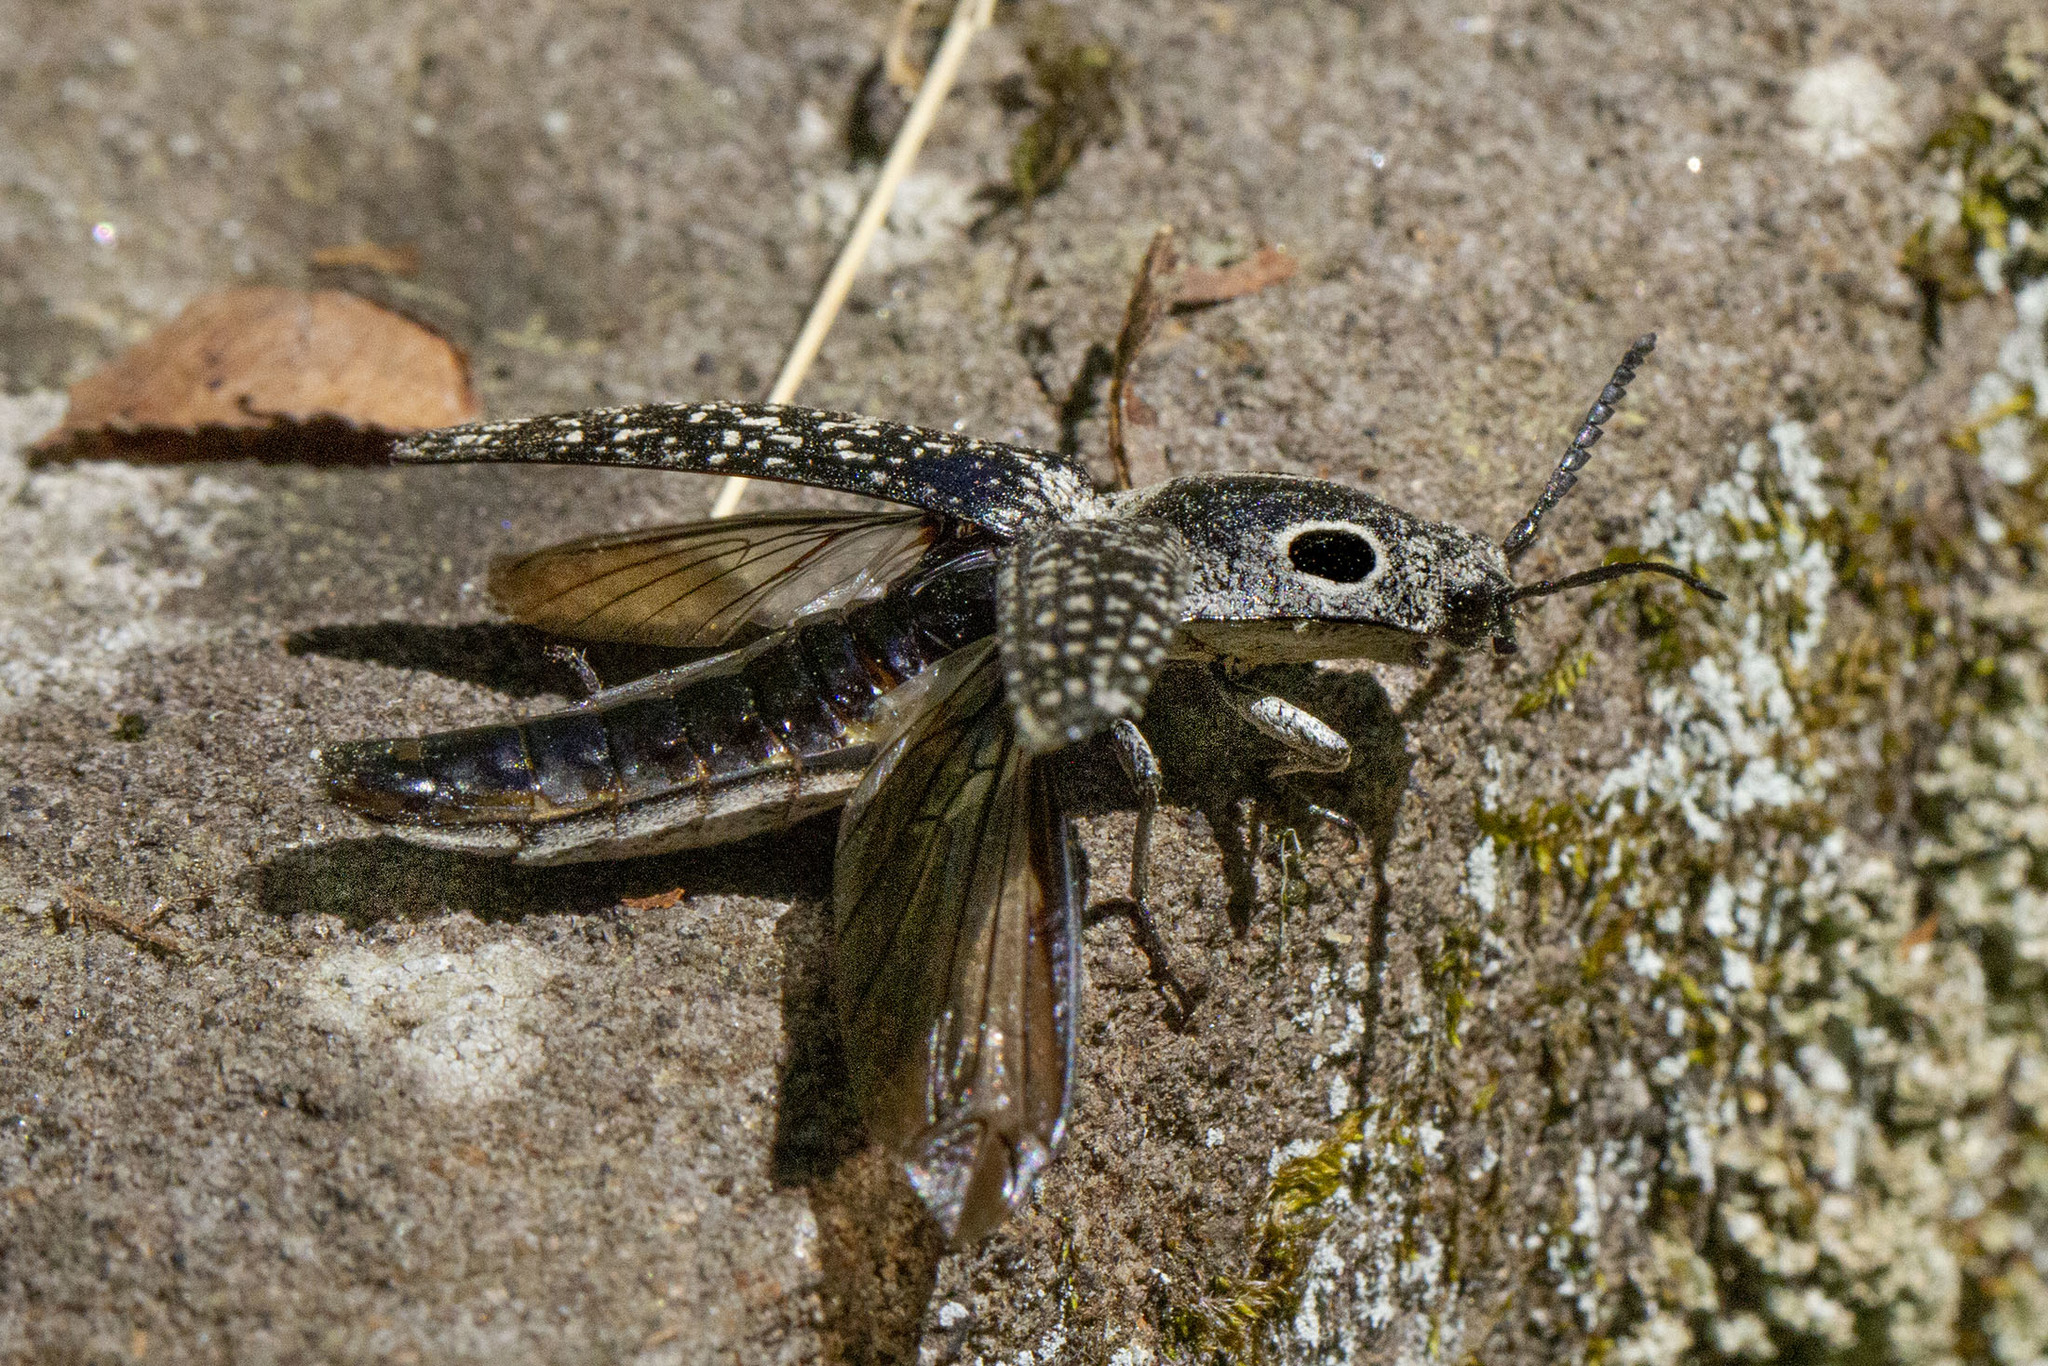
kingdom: Animalia
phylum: Arthropoda
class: Insecta
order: Coleoptera
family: Elateridae
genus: Alaus
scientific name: Alaus oculatus
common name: Eastern eyed click beetle
